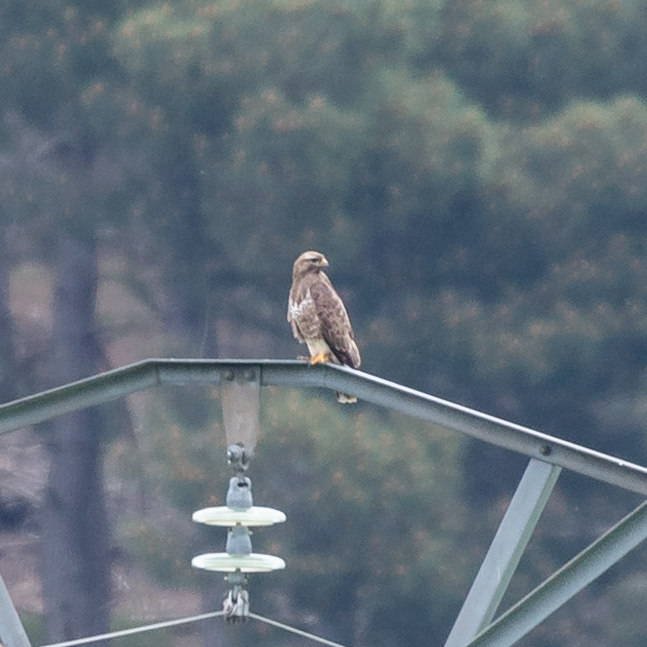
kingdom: Animalia
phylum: Chordata
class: Aves
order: Accipitriformes
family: Accipitridae
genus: Buteo
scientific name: Buteo buteo
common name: Common buzzard
